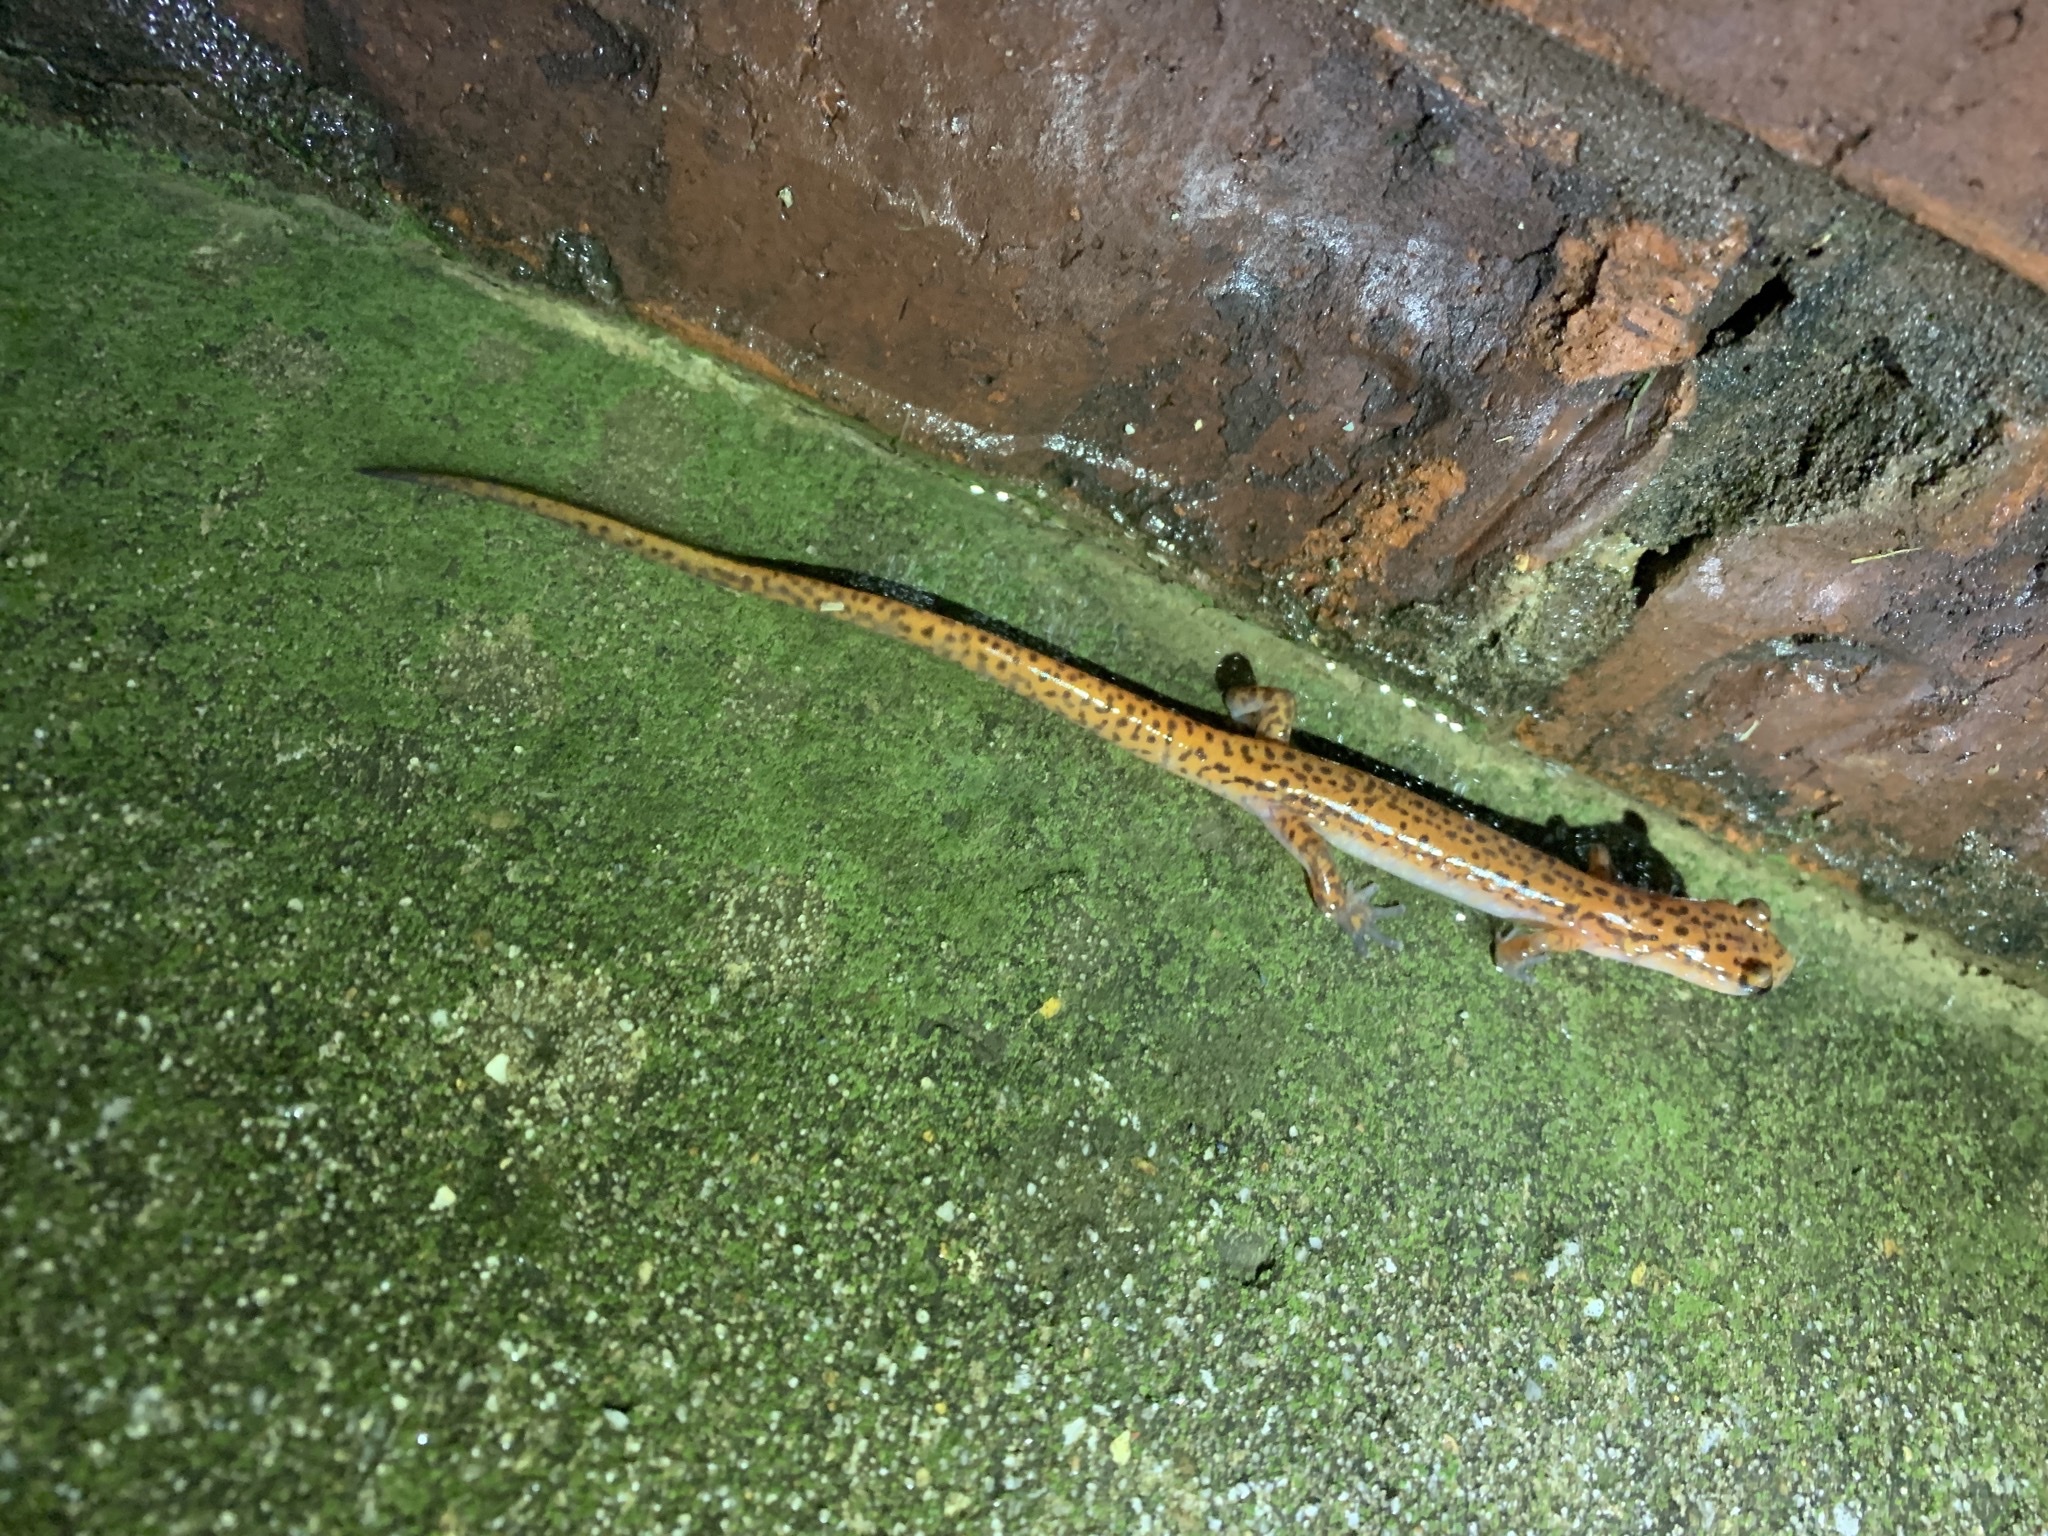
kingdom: Animalia
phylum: Chordata
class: Amphibia
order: Caudata
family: Plethodontidae
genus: Eurycea
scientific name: Eurycea lucifuga
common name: Cave salamander
